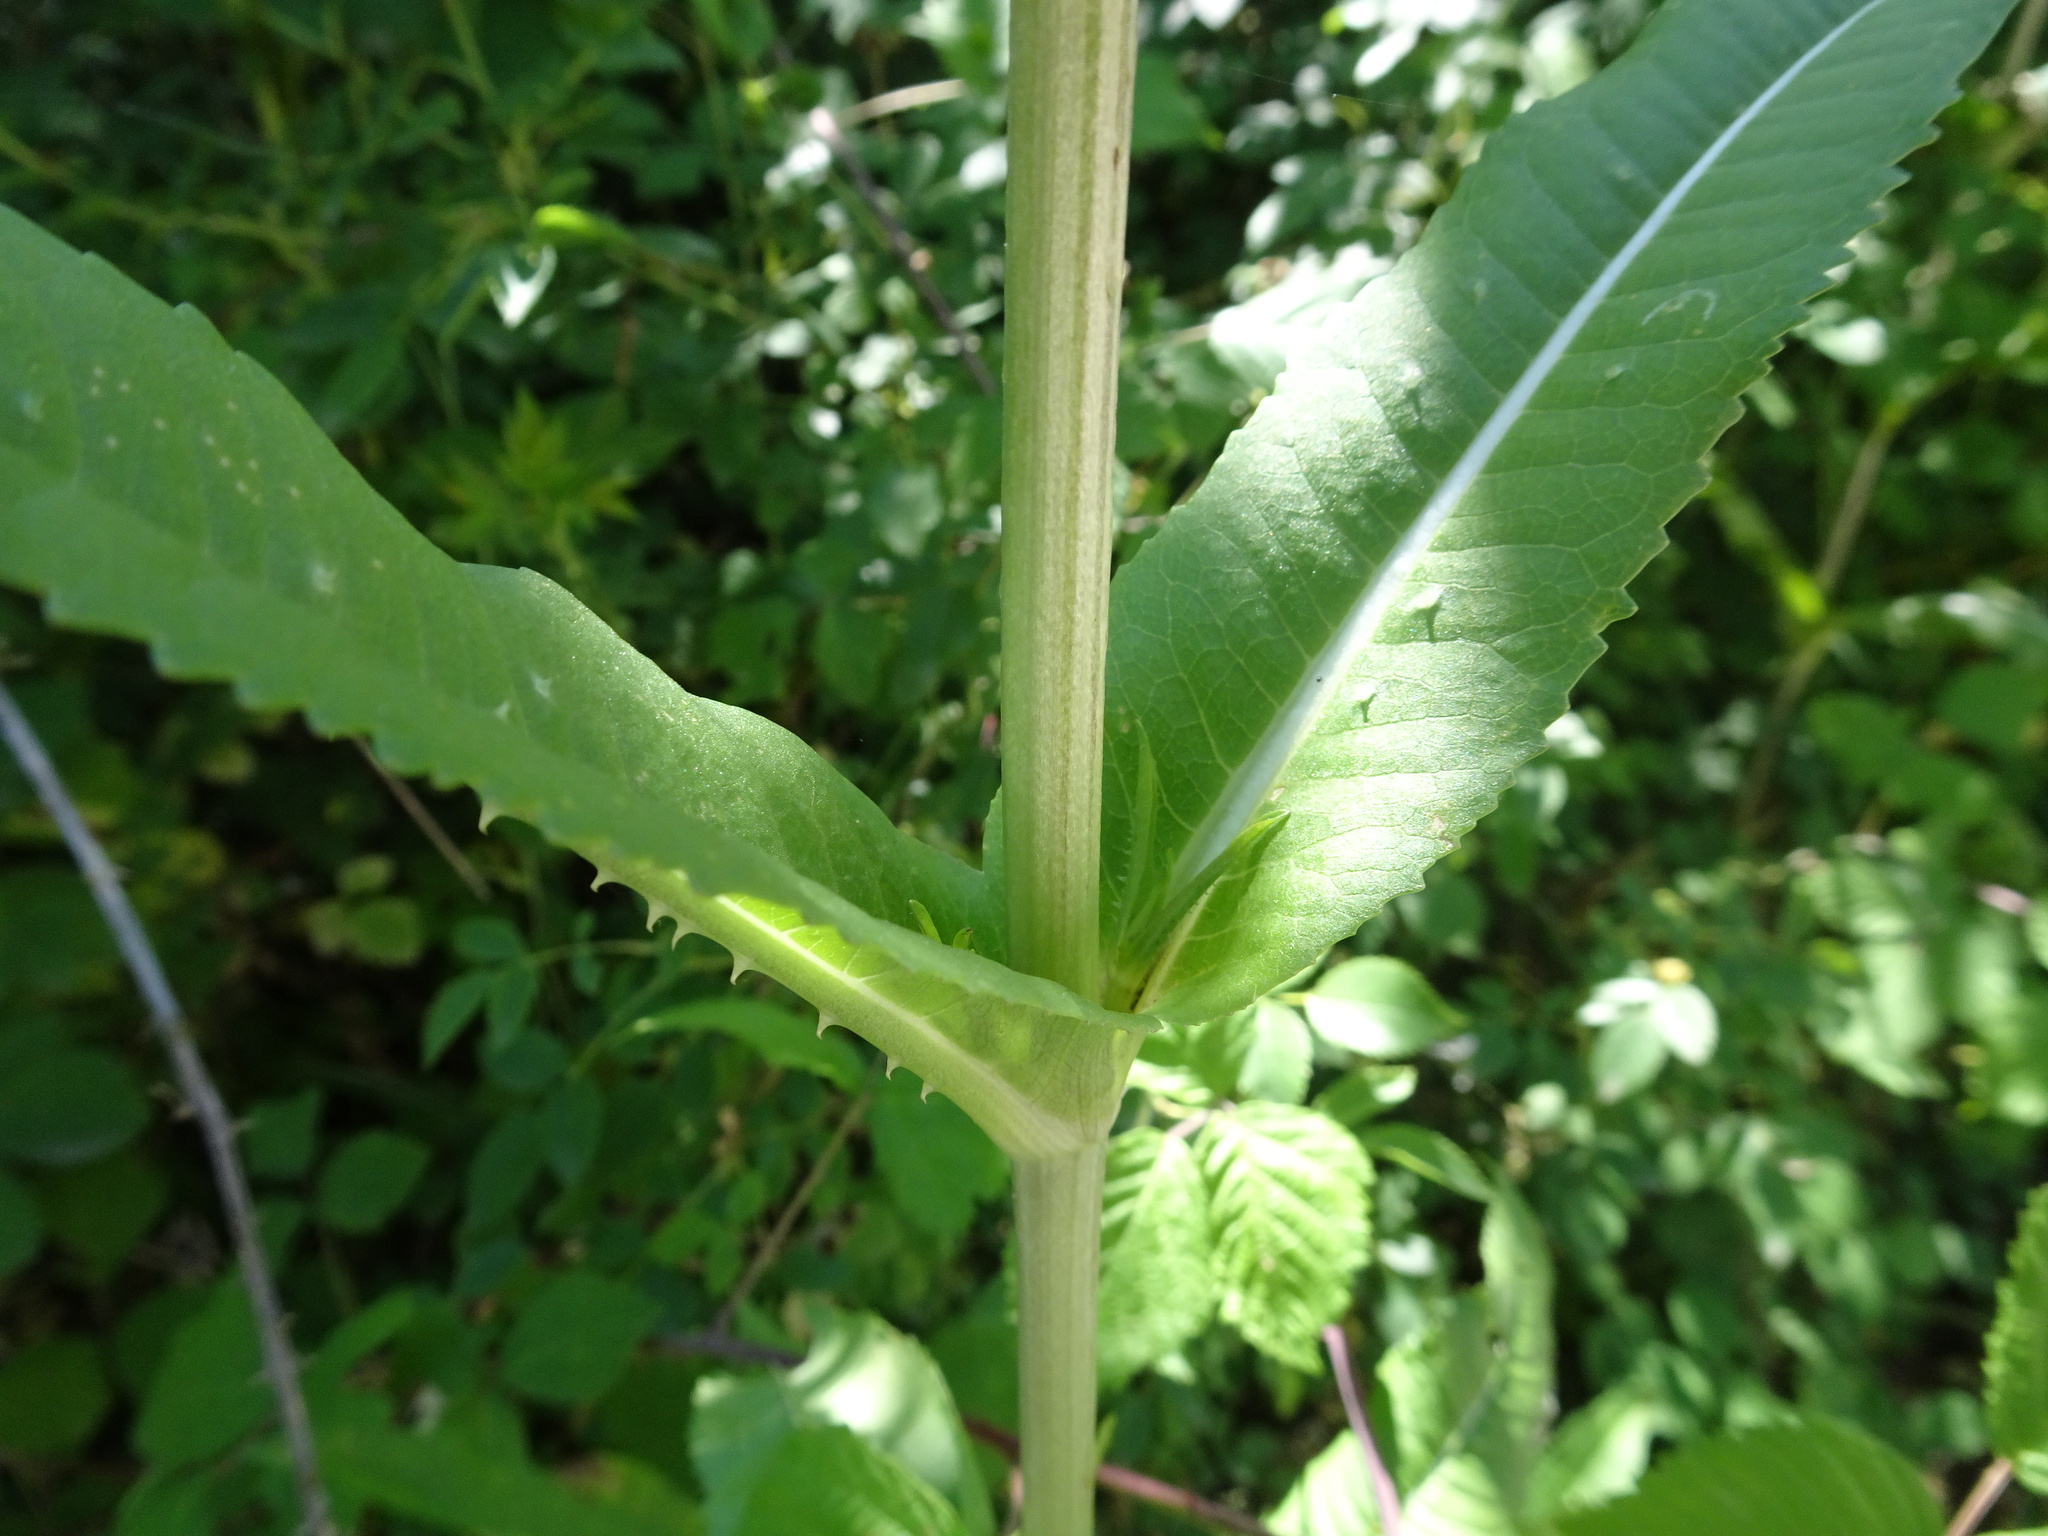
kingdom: Plantae
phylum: Tracheophyta
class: Magnoliopsida
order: Dipsacales
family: Caprifoliaceae
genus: Dipsacus
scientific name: Dipsacus fullonum
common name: Teasel
